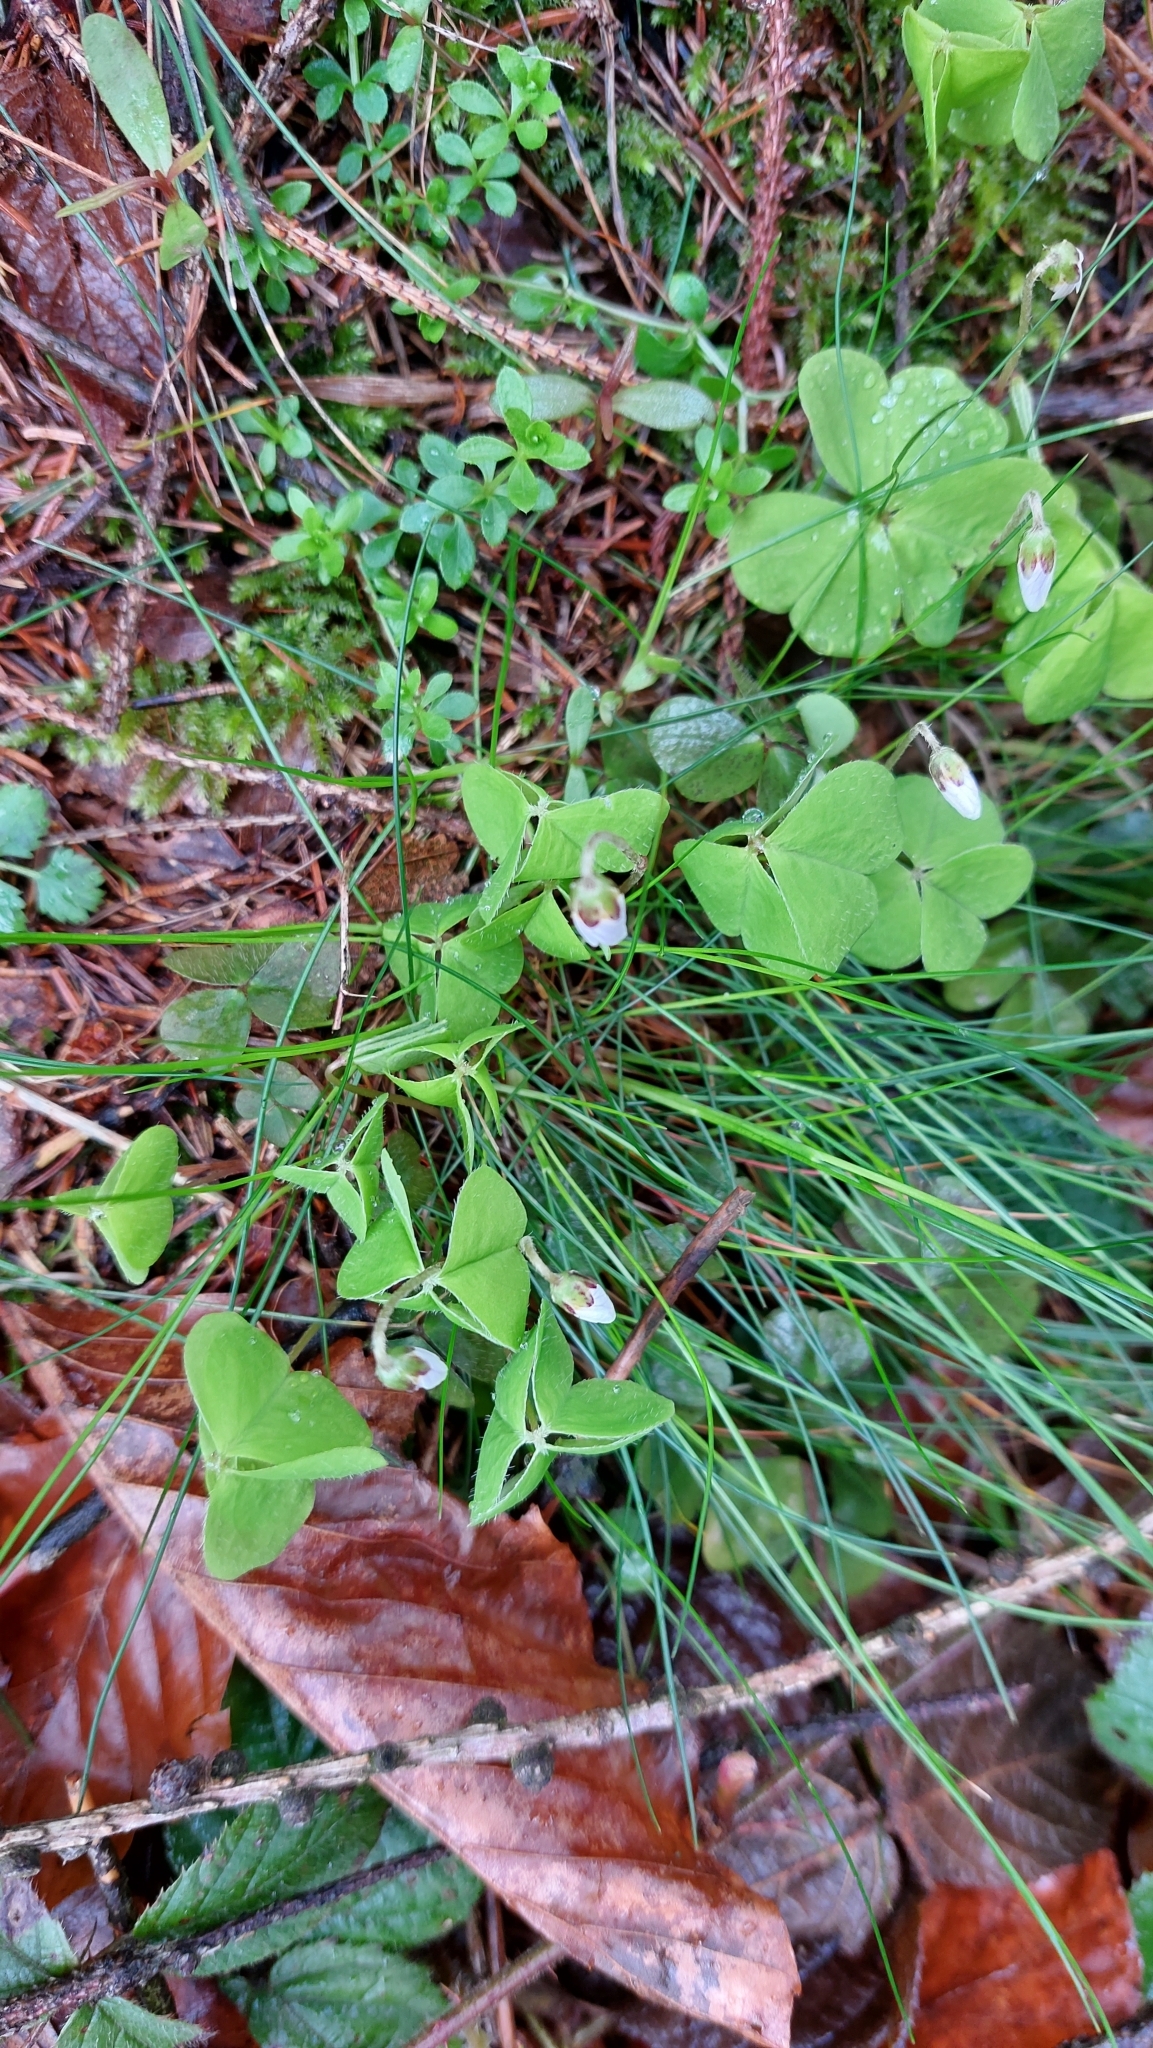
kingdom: Plantae
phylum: Tracheophyta
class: Magnoliopsida
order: Oxalidales
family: Oxalidaceae
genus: Oxalis
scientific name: Oxalis acetosella
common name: Wood-sorrel
